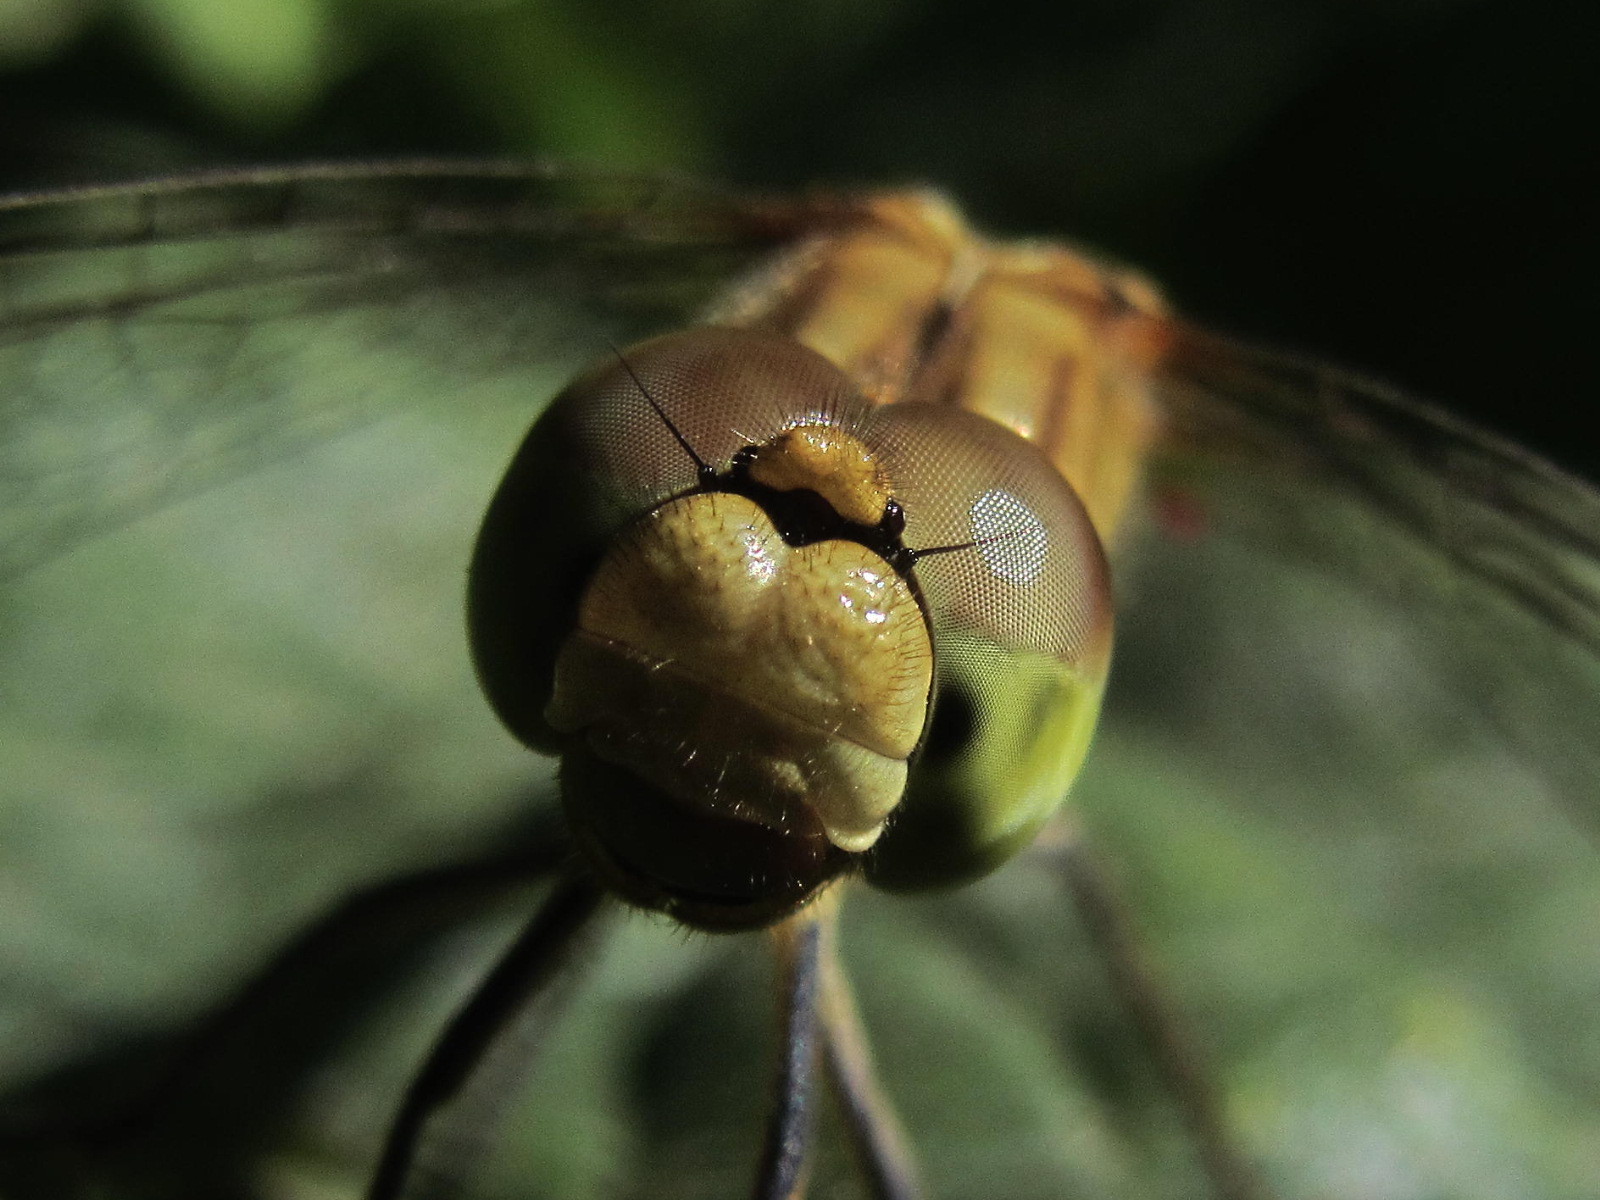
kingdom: Animalia
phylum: Arthropoda
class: Insecta
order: Odonata
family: Libellulidae
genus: Sympetrum
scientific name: Sympetrum meridionale
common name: Southern darter
